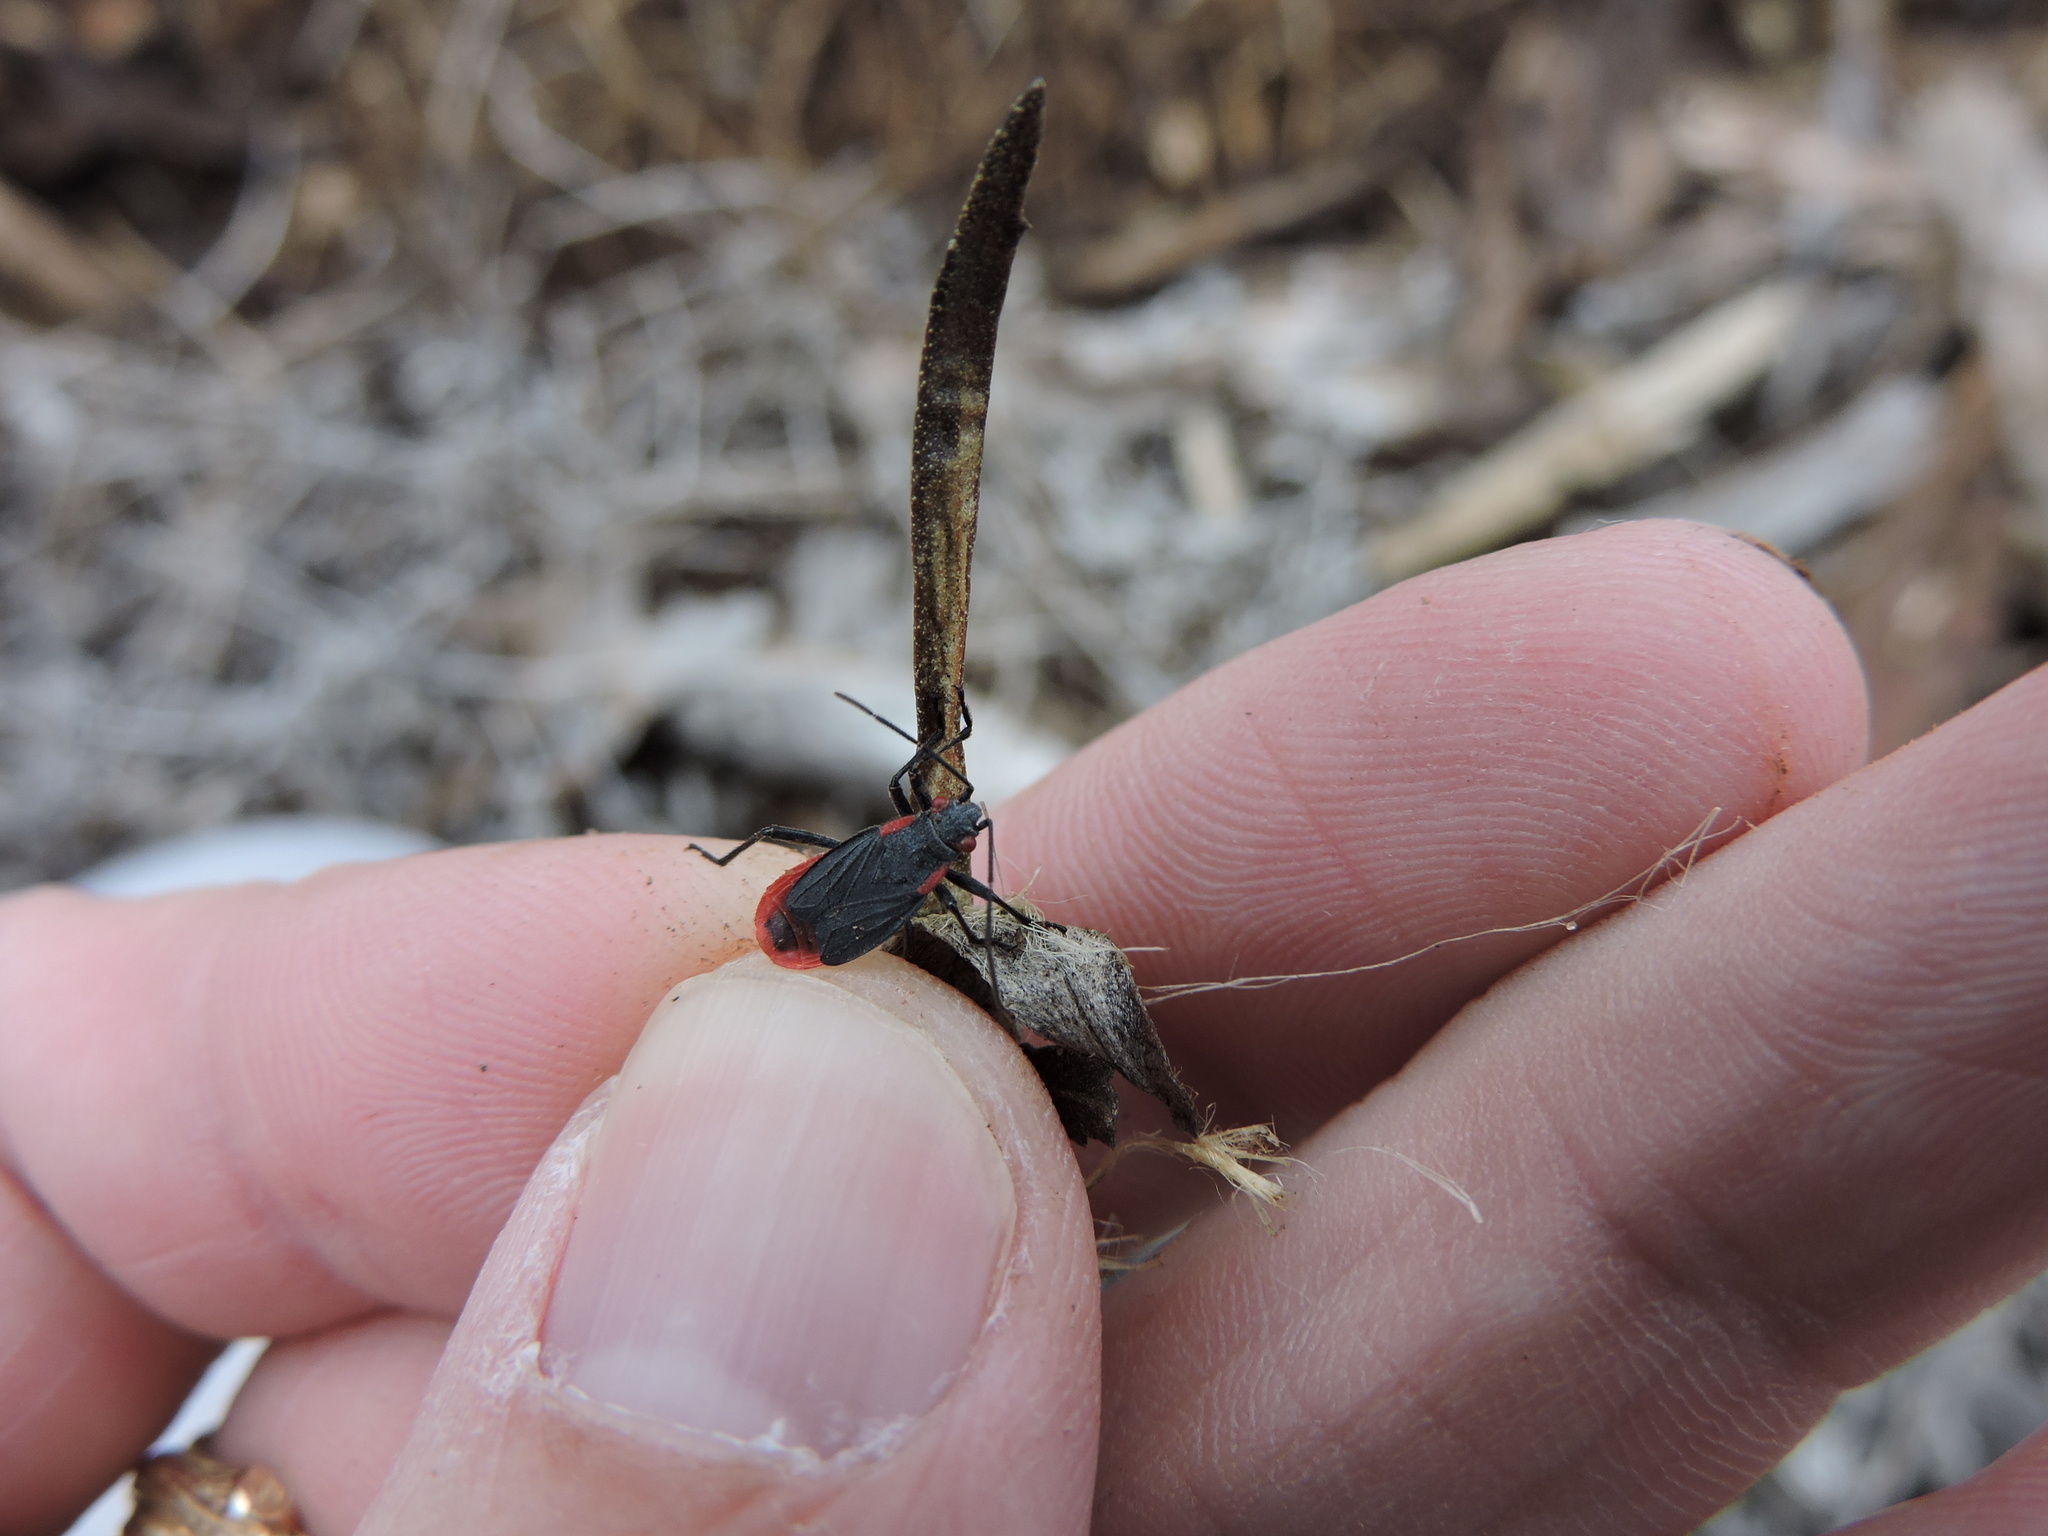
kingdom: Animalia
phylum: Arthropoda
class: Insecta
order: Hemiptera
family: Rhopalidae
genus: Jadera
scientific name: Jadera haematoloma
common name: Red-shouldered bug
